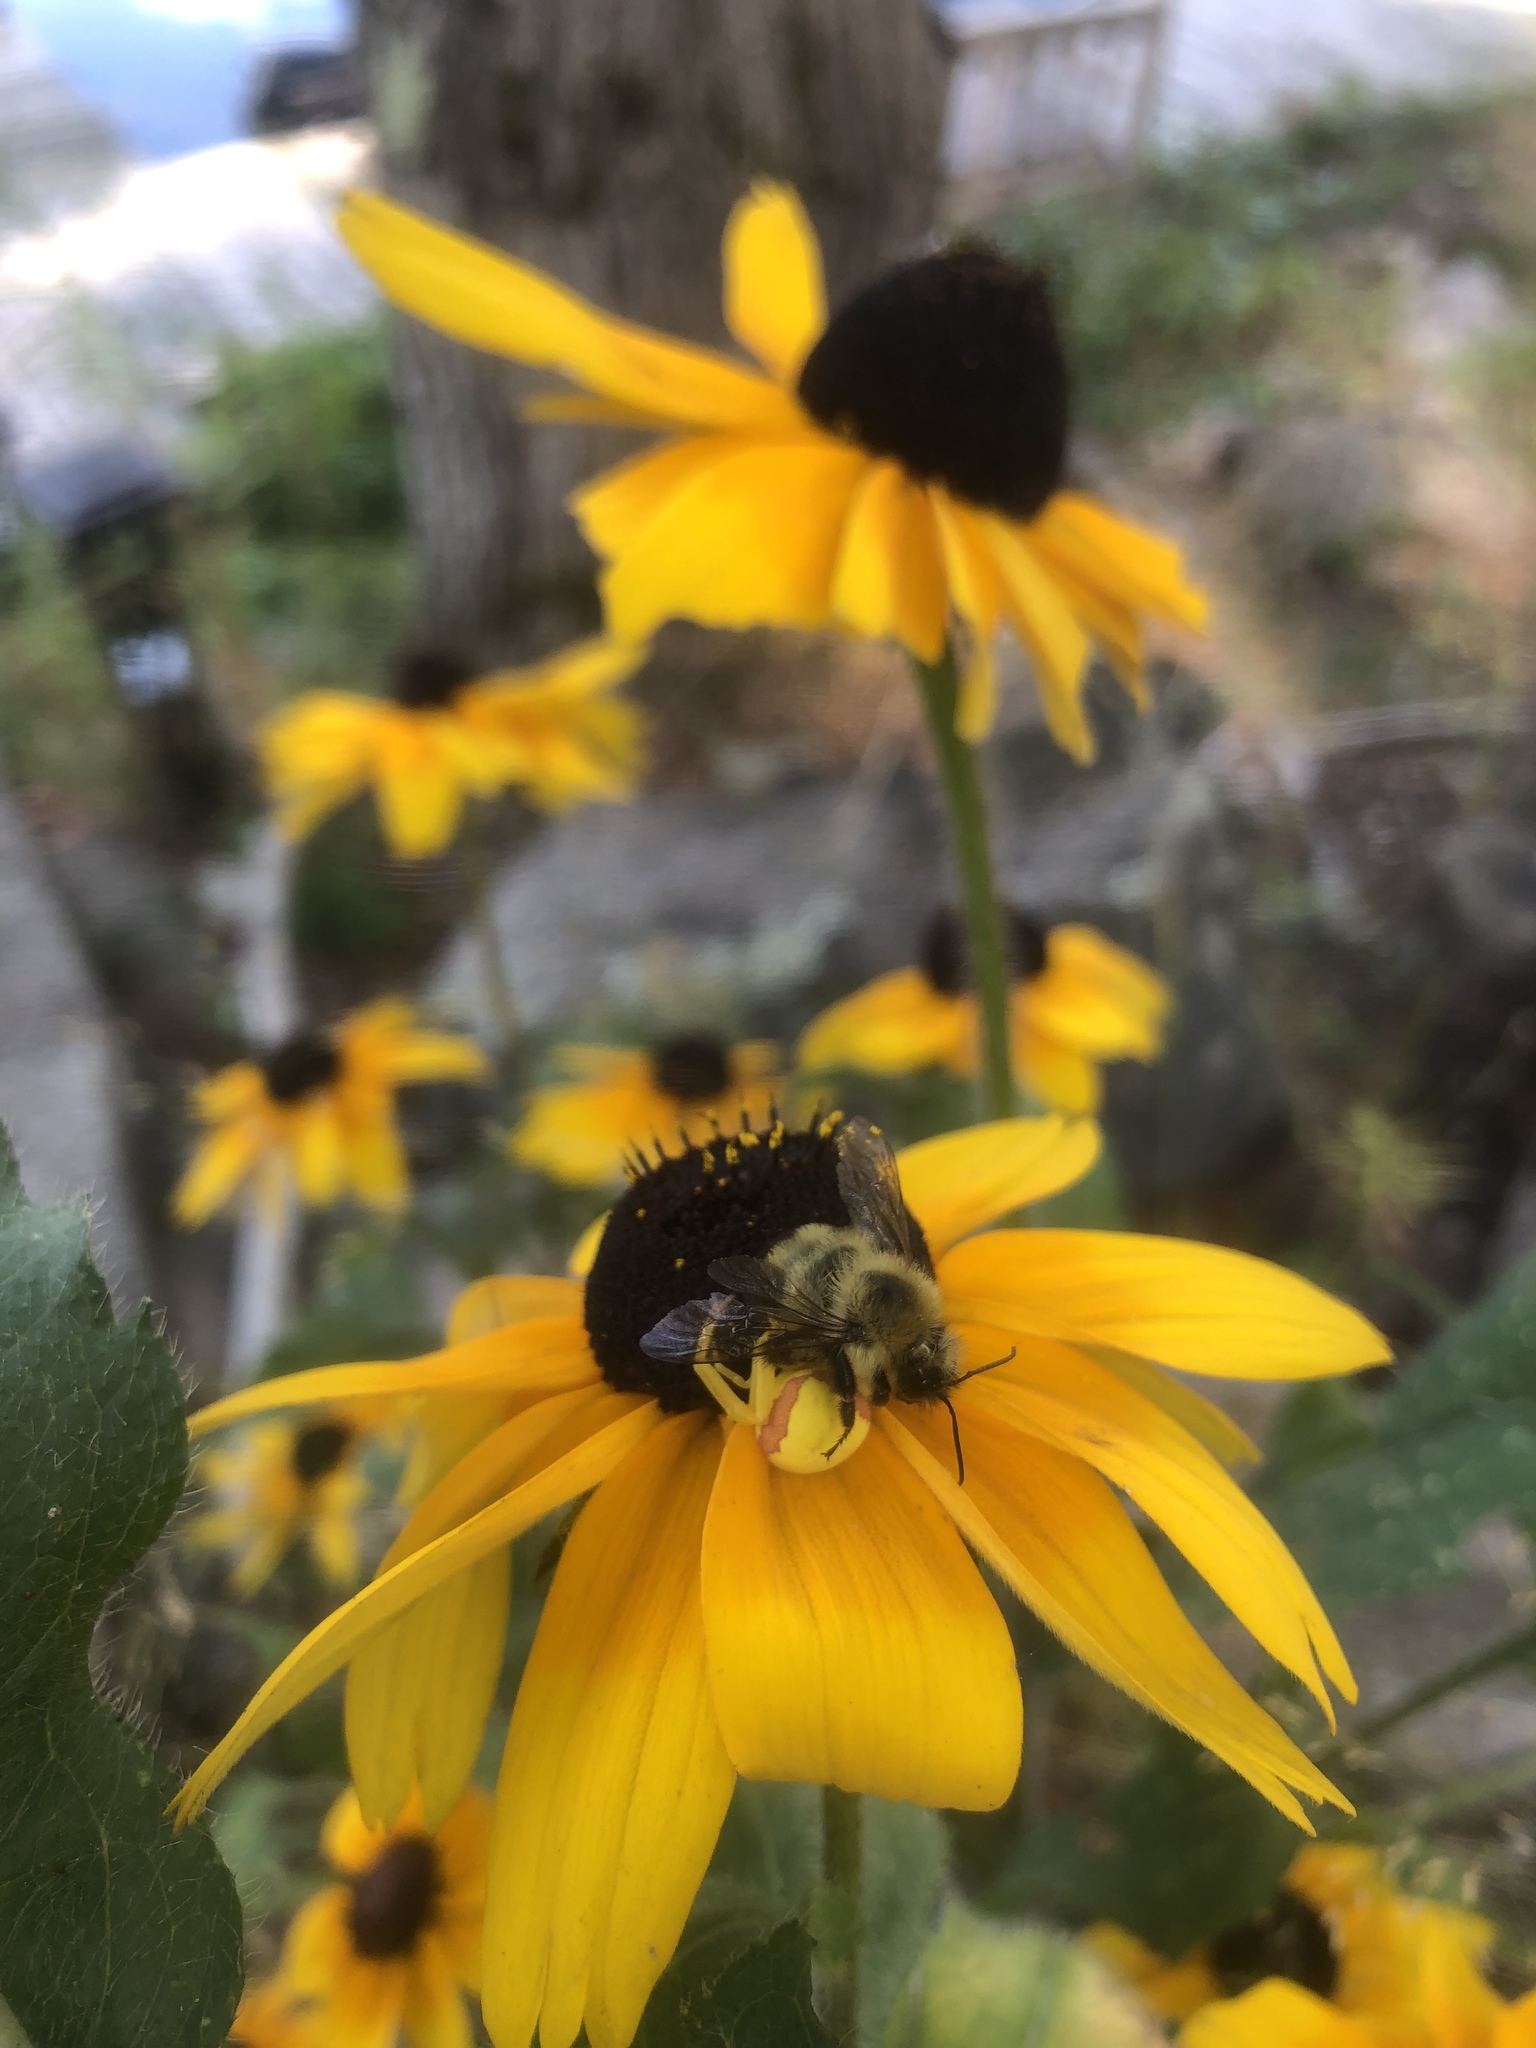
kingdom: Animalia
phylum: Arthropoda
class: Arachnida
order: Araneae
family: Thomisidae
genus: Misumena
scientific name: Misumena vatia
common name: Goldenrod crab spider
